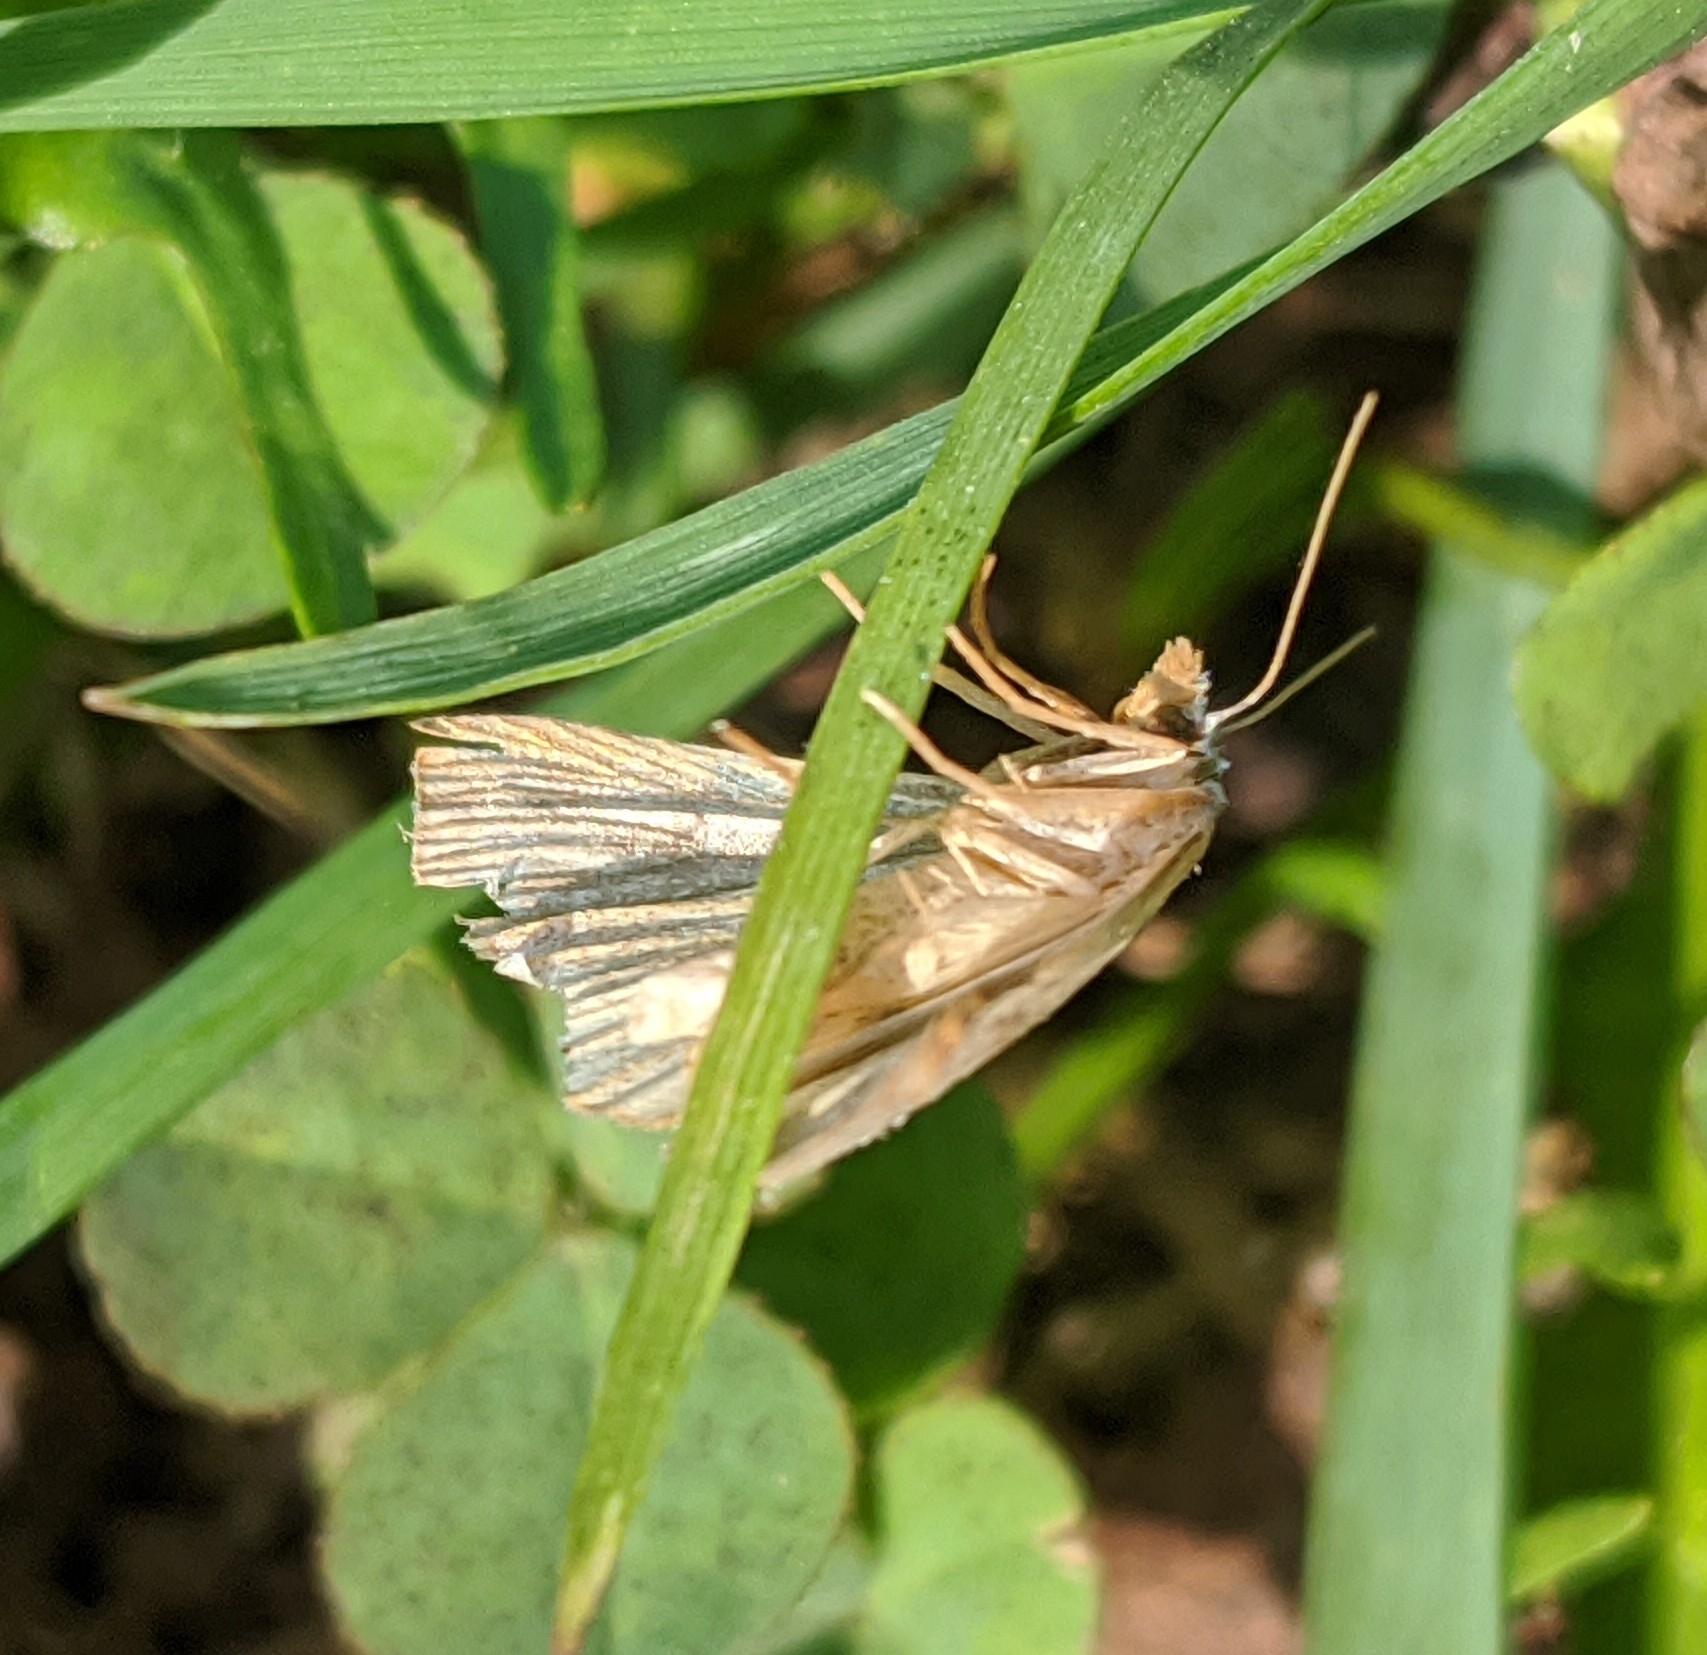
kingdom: Animalia
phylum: Arthropoda
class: Insecta
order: Lepidoptera
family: Erebidae
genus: Rivula
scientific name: Rivula sericealis
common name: Straw dot
